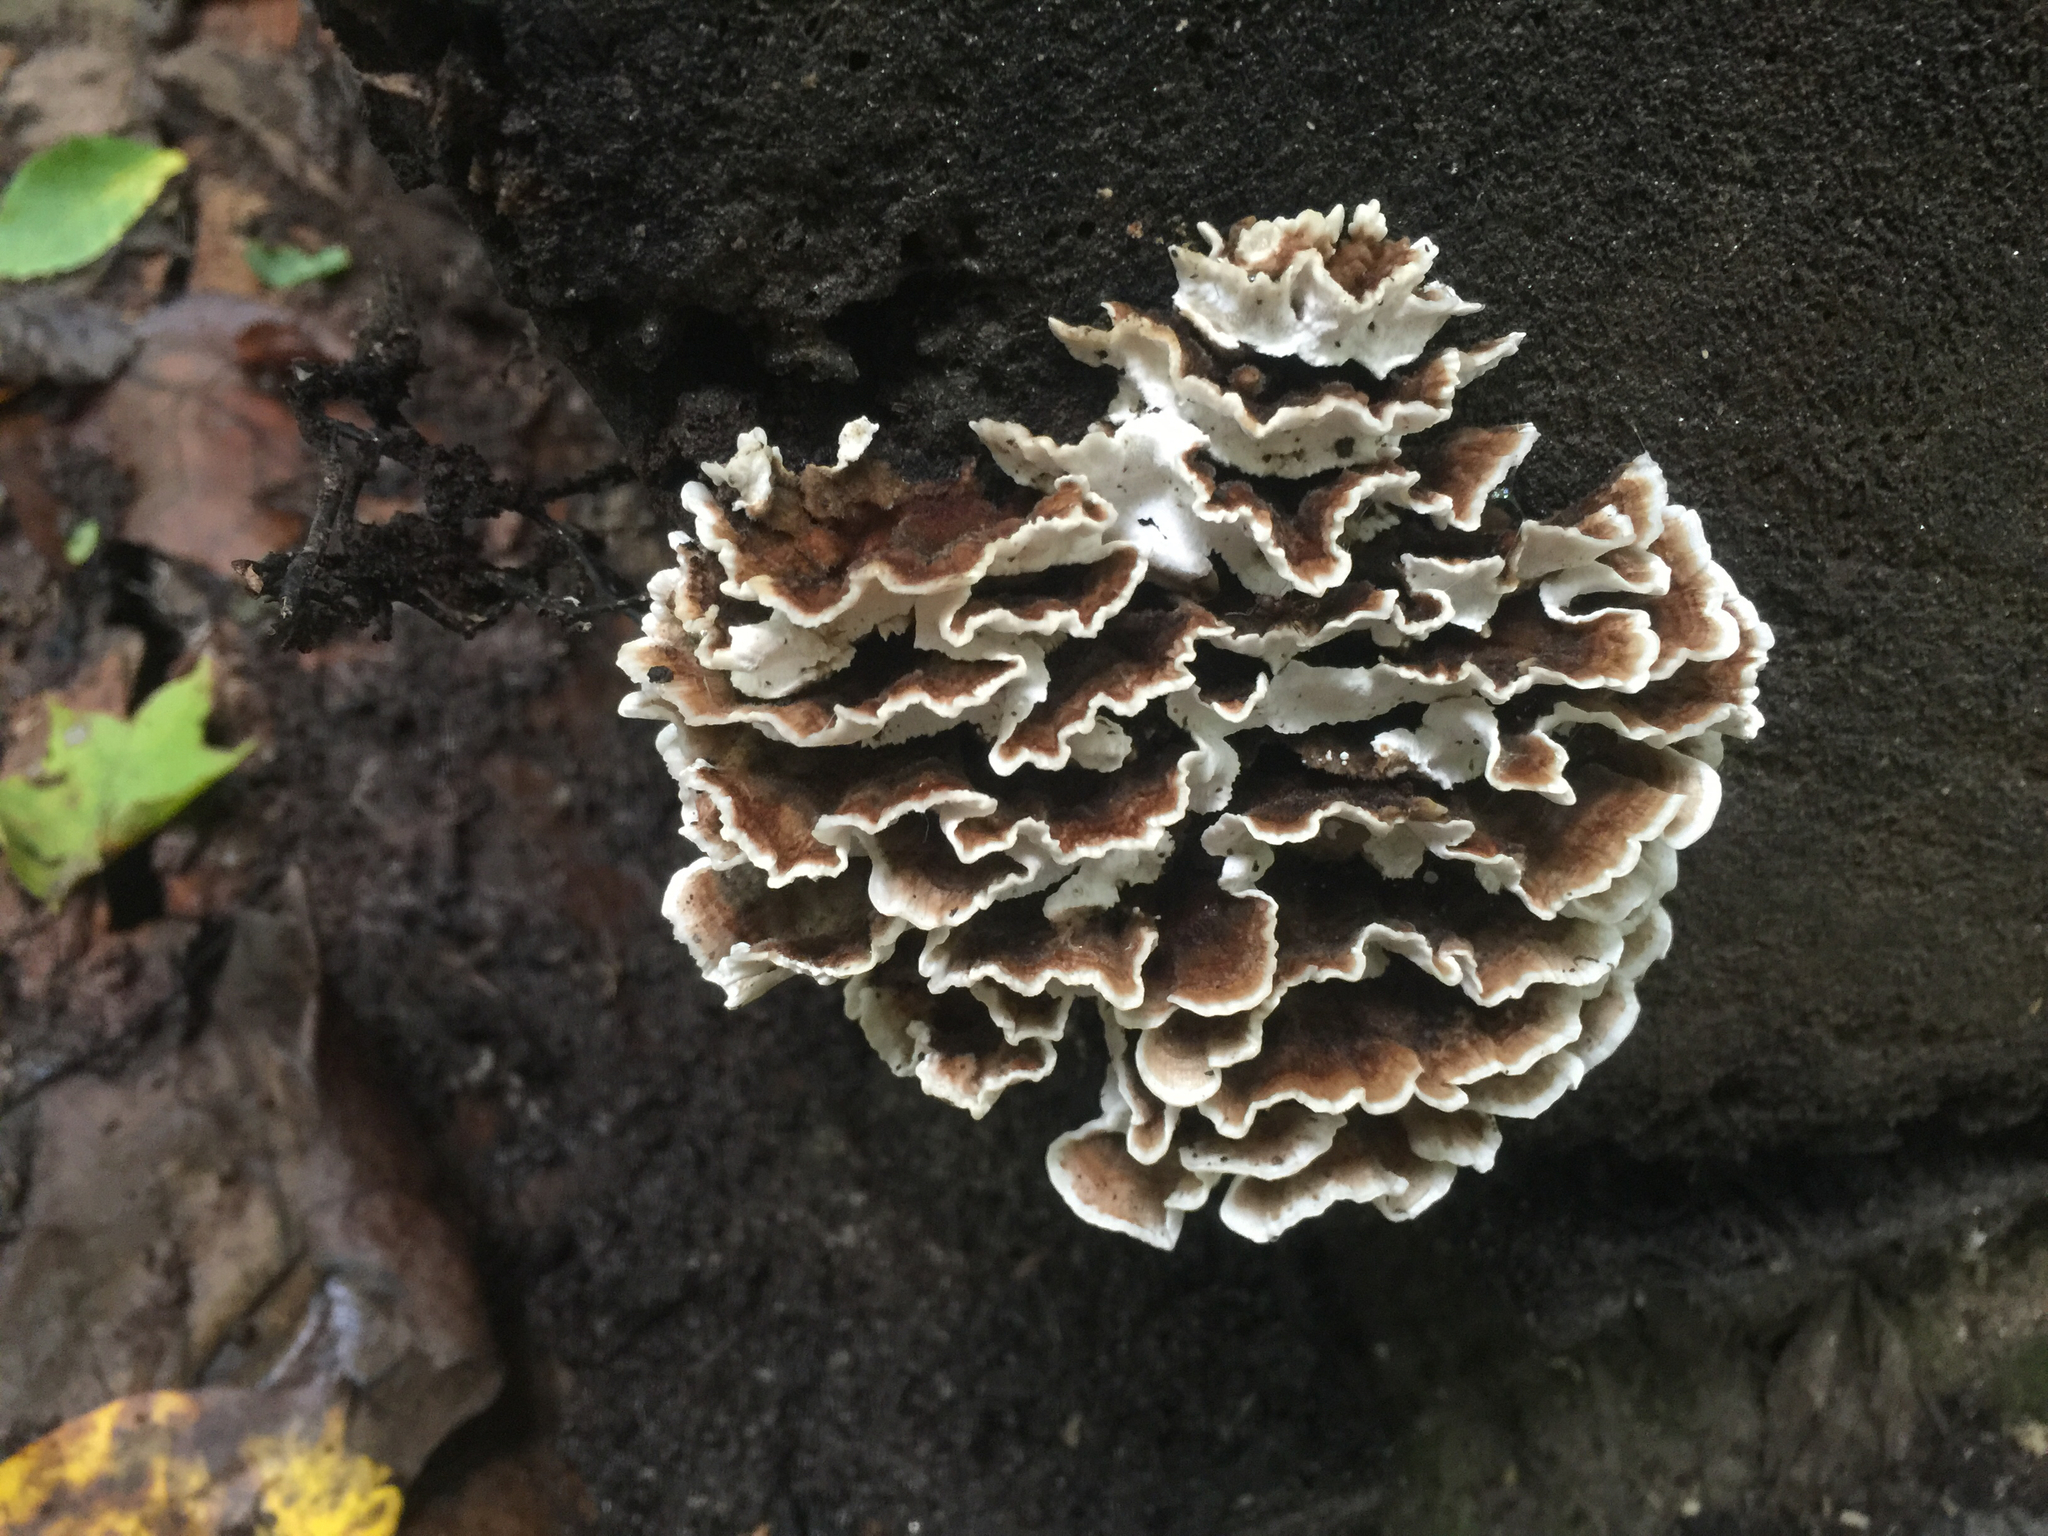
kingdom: Fungi
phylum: Basidiomycota
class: Agaricomycetes
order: Polyporales
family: Polyporaceae
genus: Trametes
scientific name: Trametes versicolor
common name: Turkeytail
